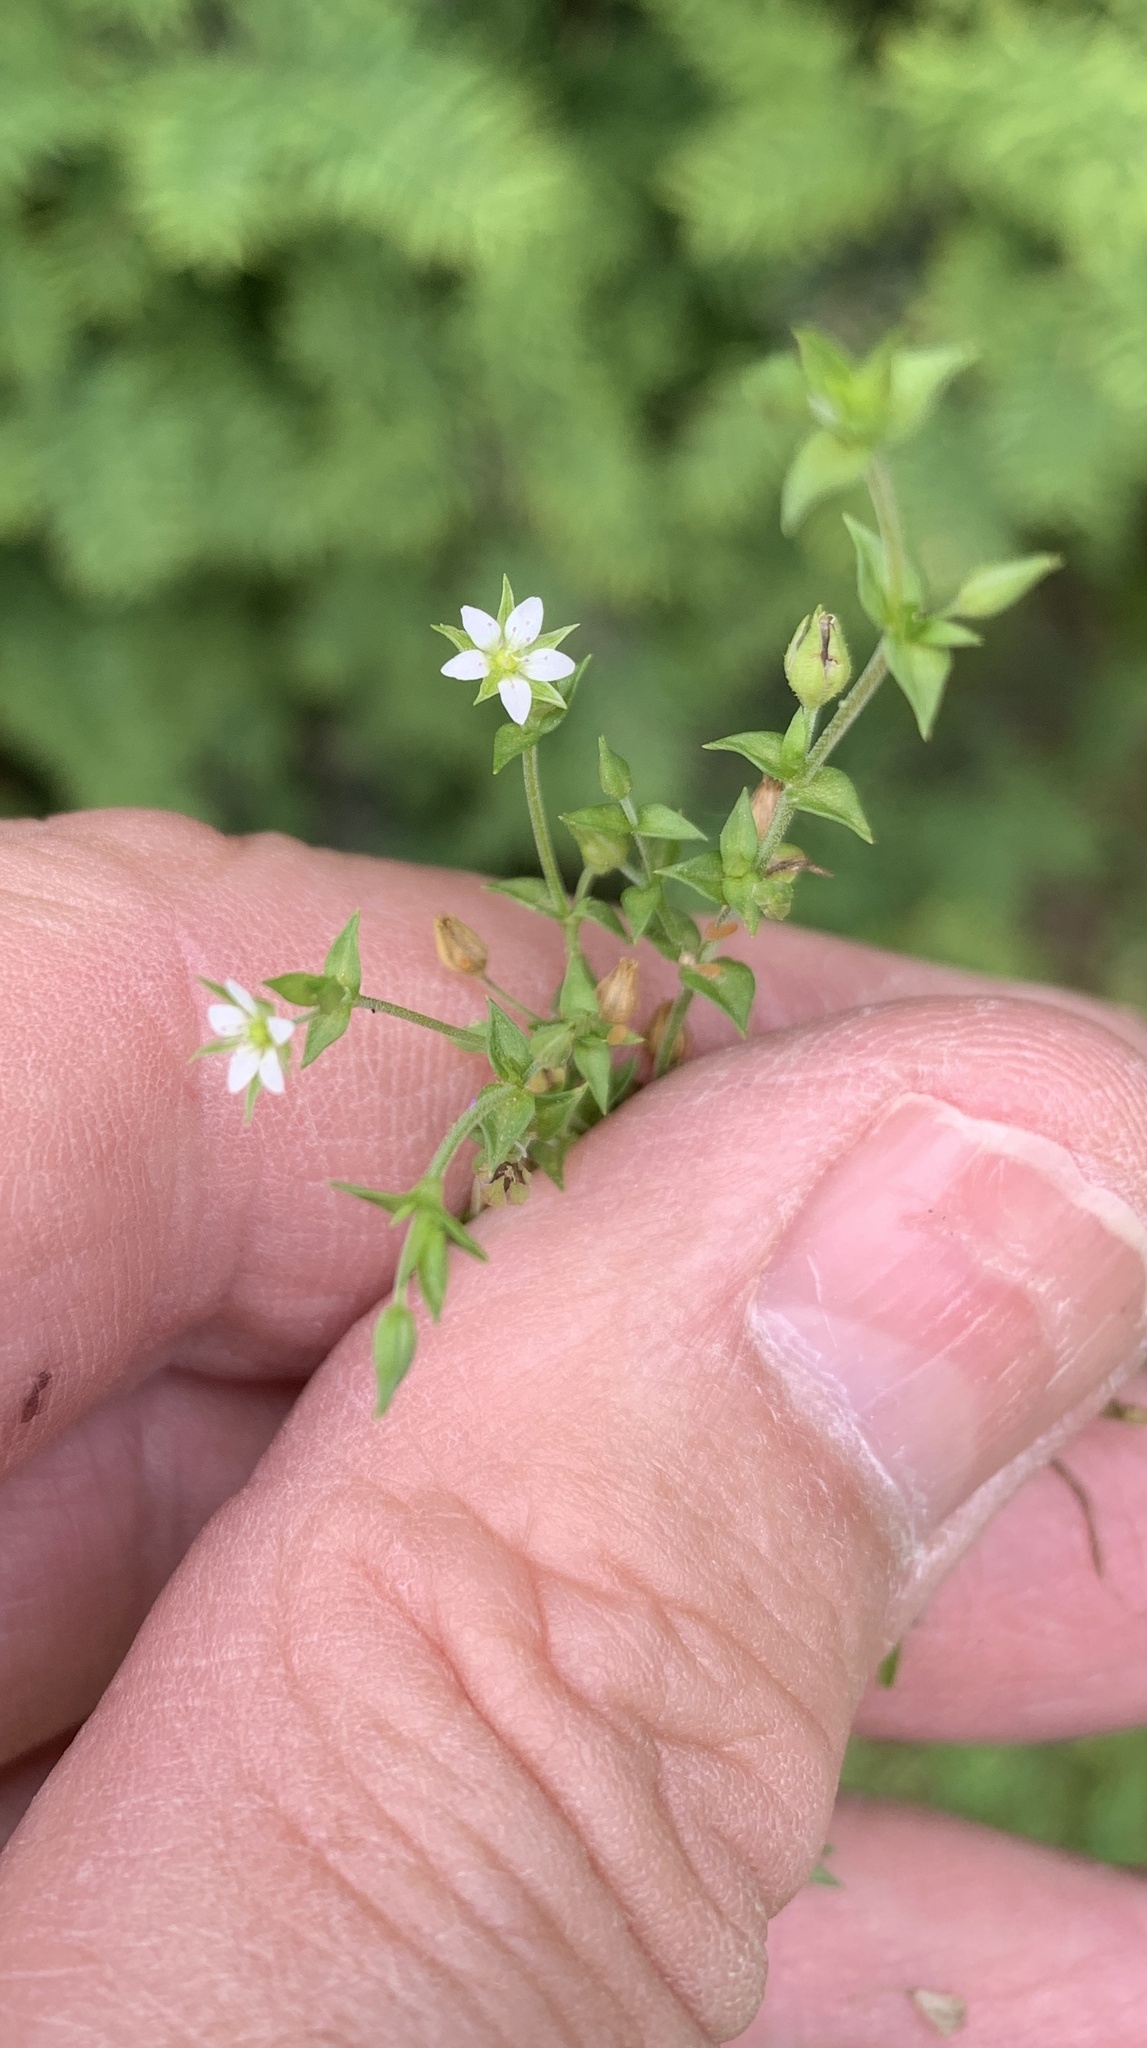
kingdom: Plantae
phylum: Tracheophyta
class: Magnoliopsida
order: Caryophyllales
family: Caryophyllaceae
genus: Arenaria
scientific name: Arenaria serpyllifolia
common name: Thyme-leaved sandwort
